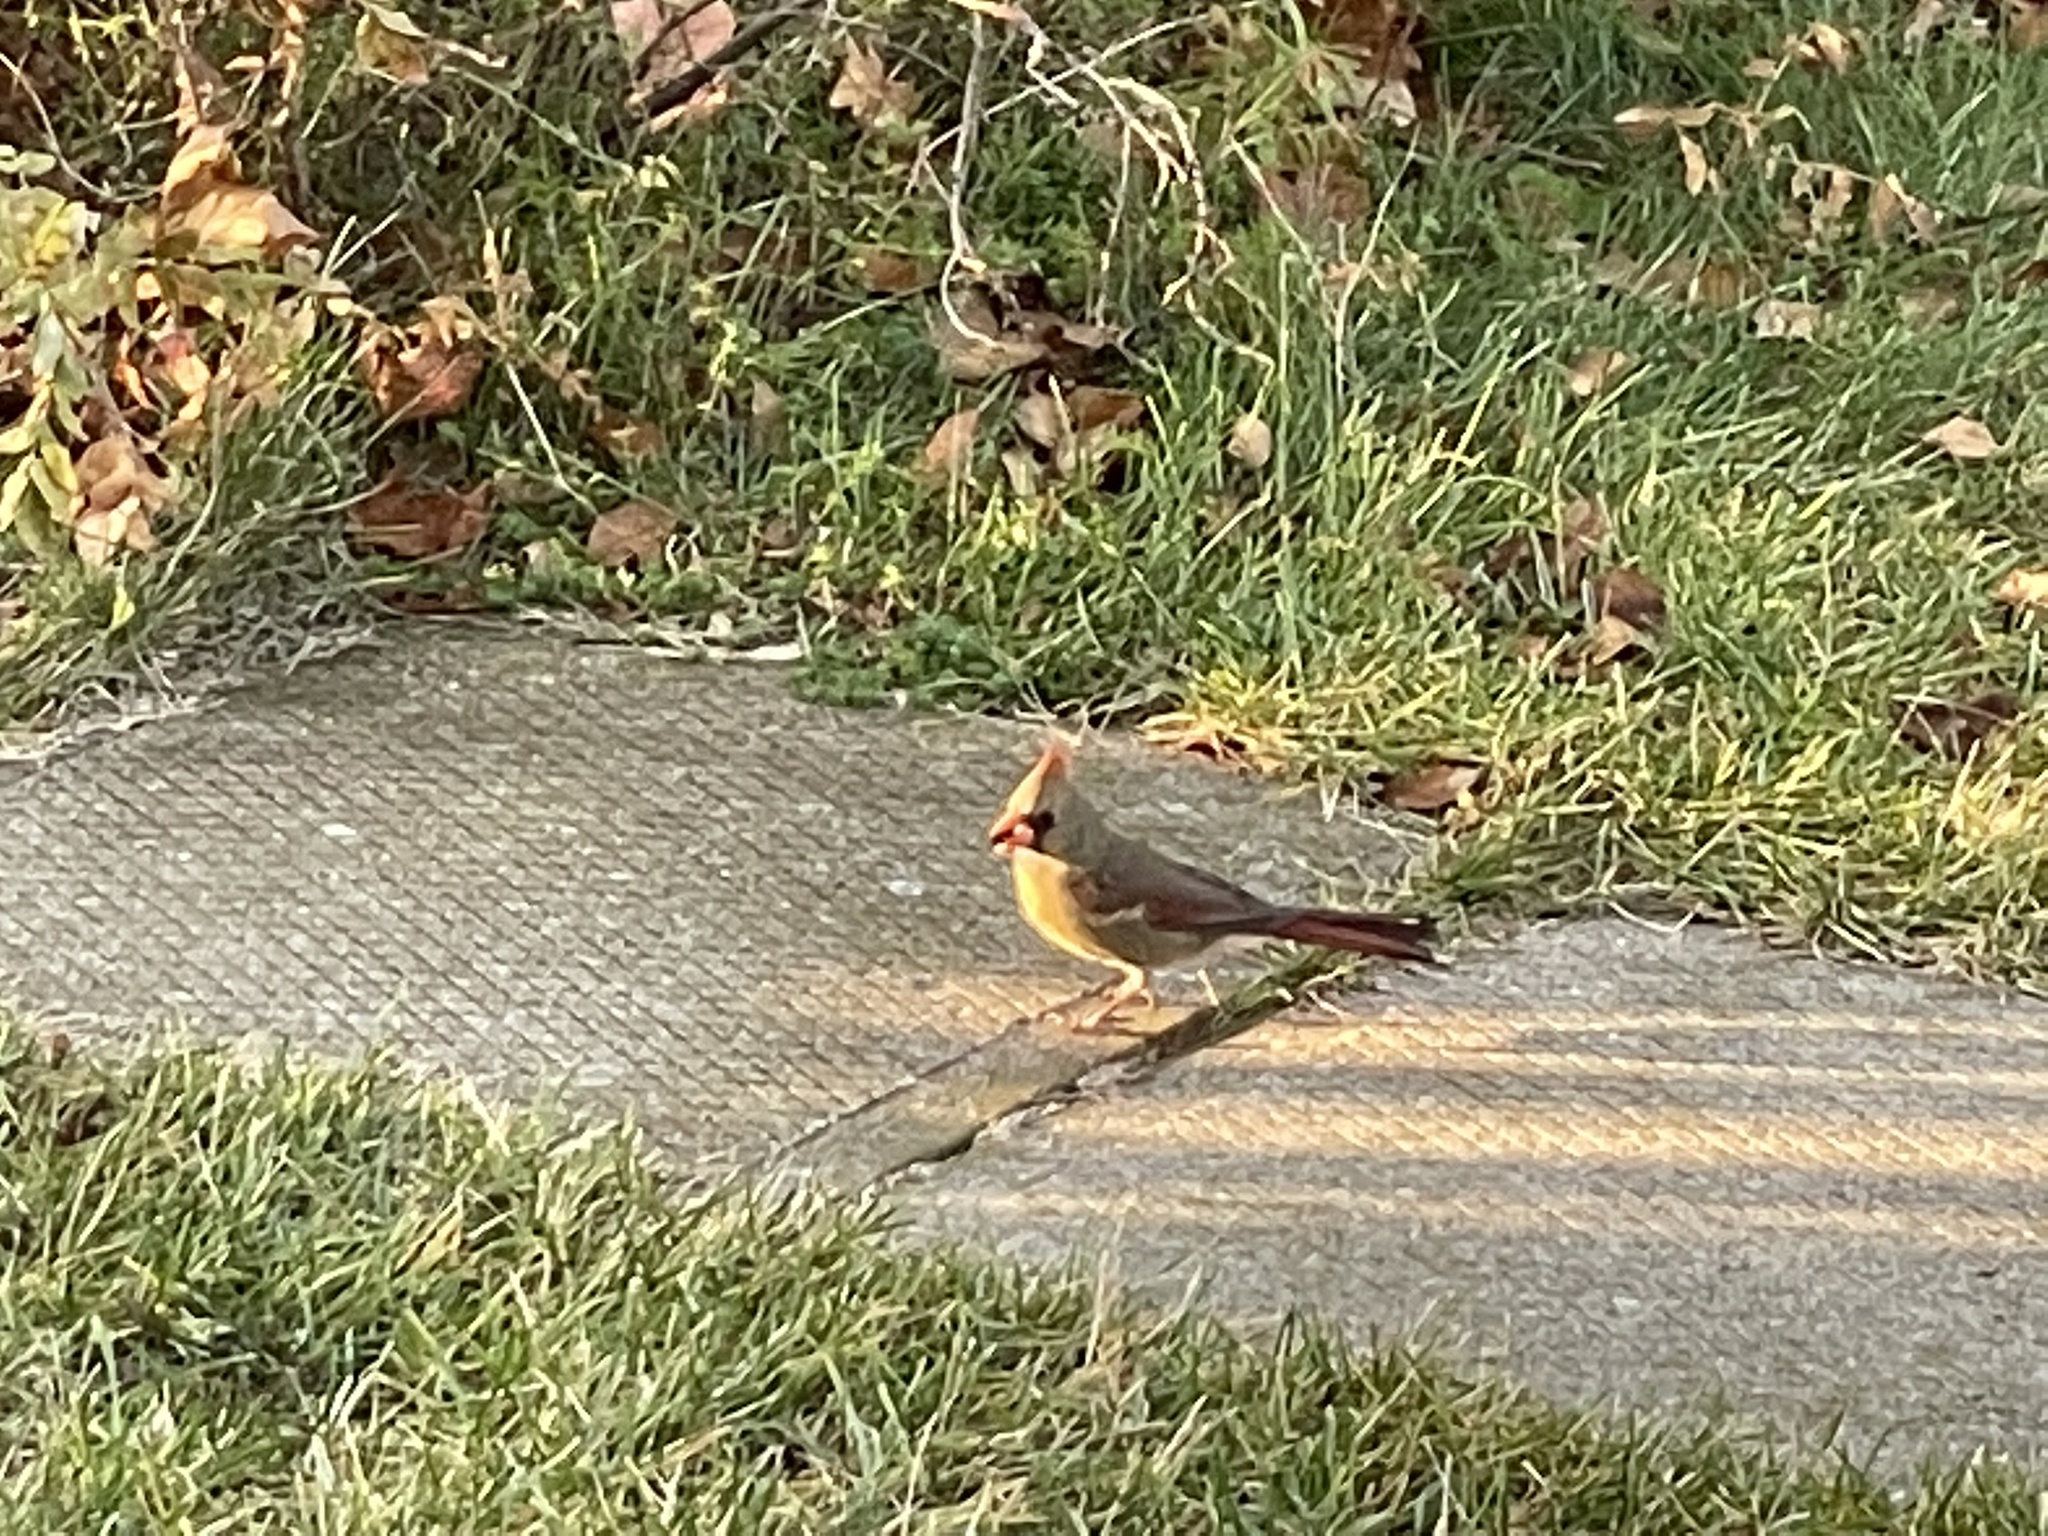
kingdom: Animalia
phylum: Chordata
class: Aves
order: Passeriformes
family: Cardinalidae
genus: Cardinalis
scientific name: Cardinalis cardinalis
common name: Northern cardinal
